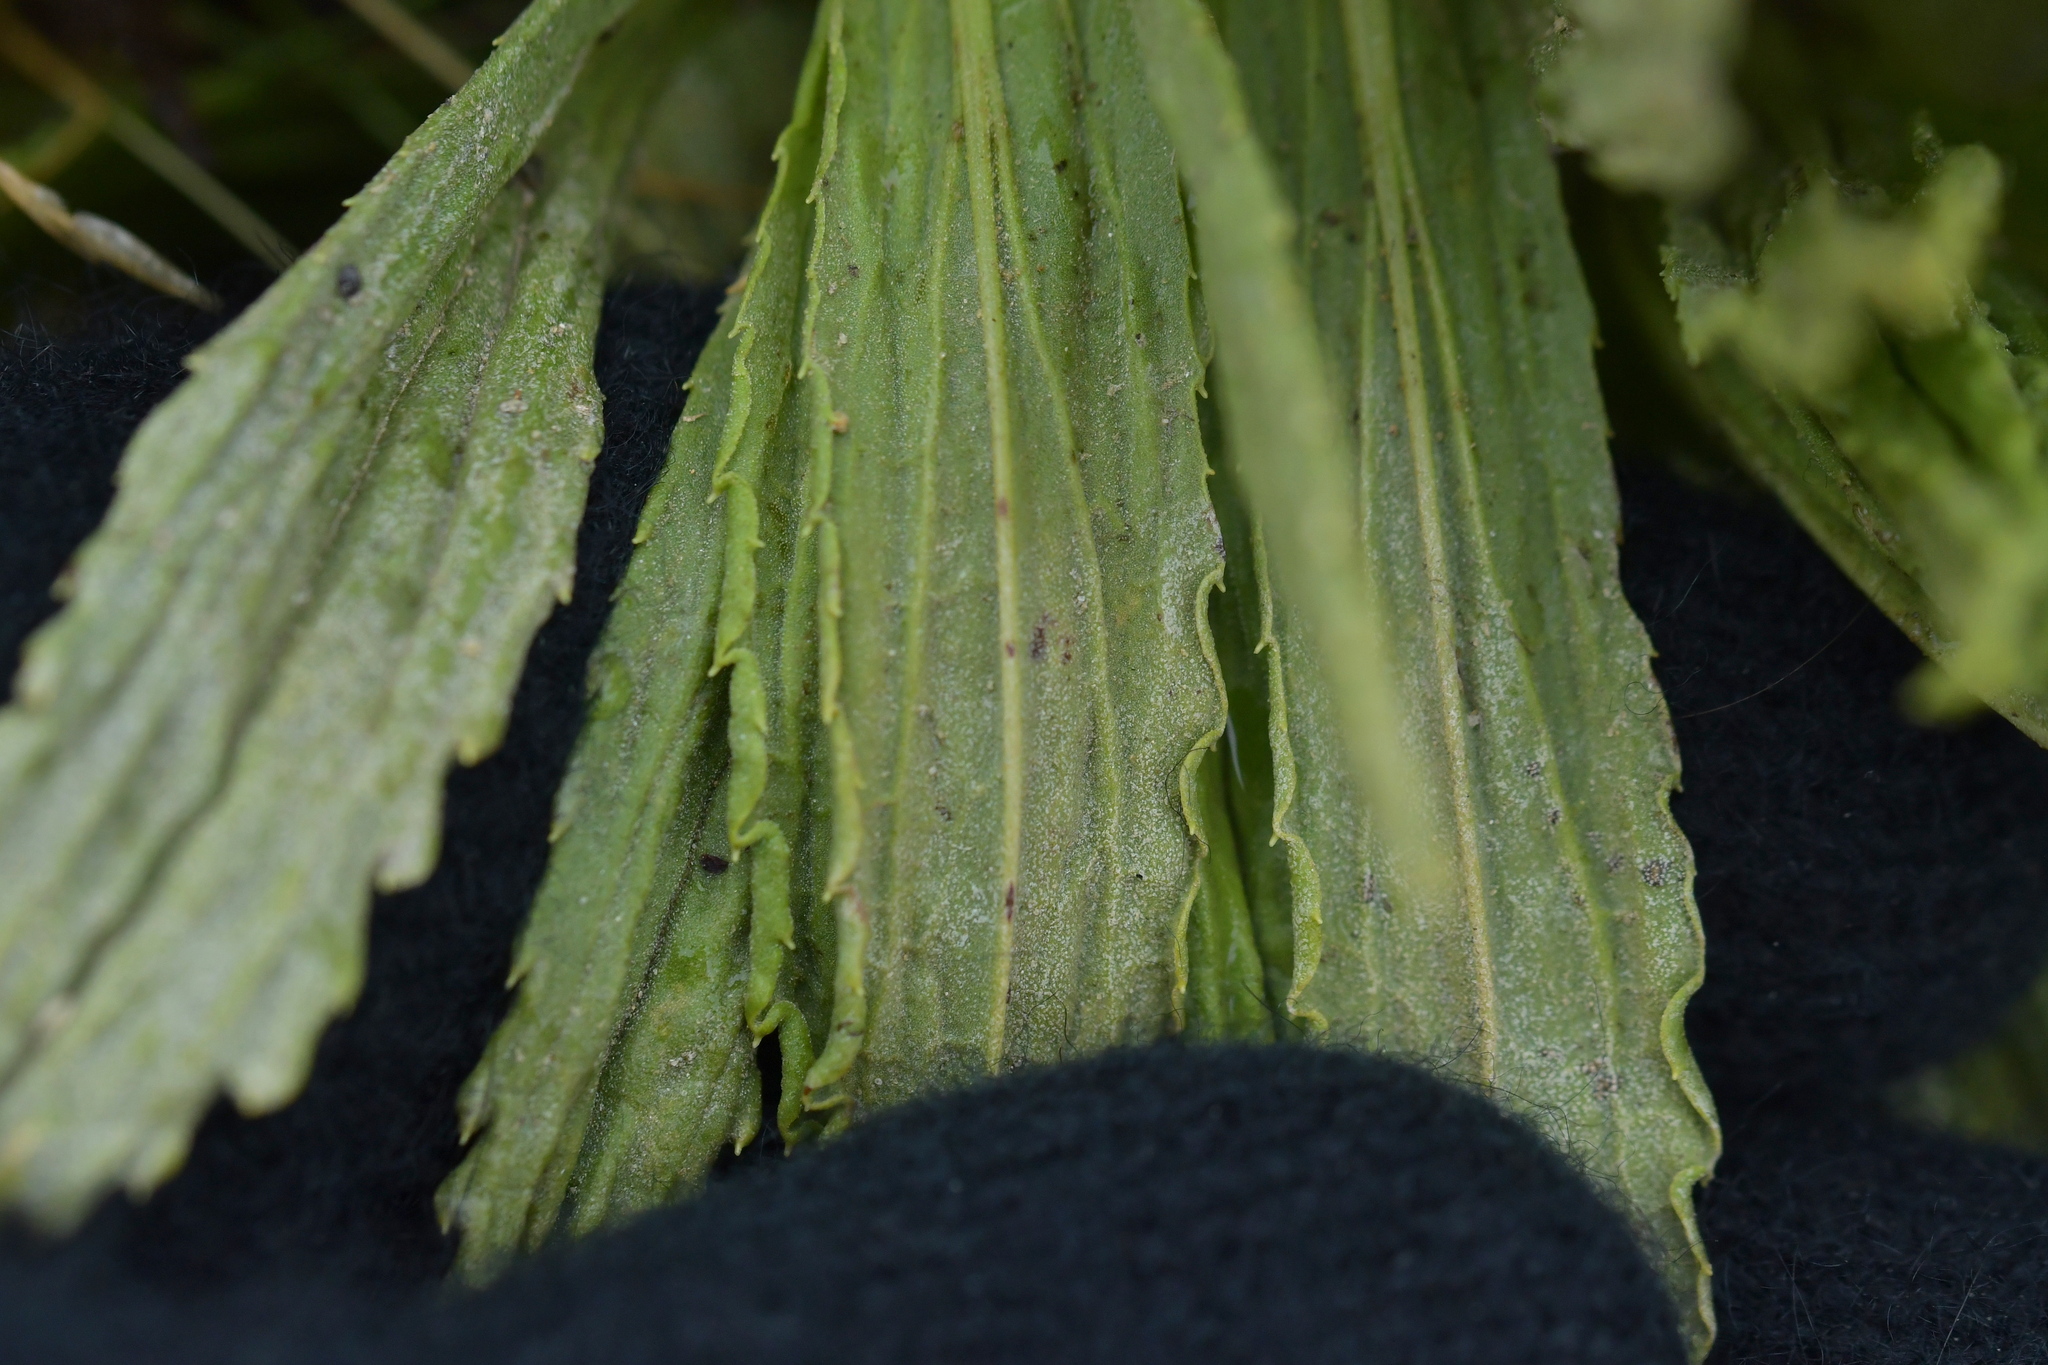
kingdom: Plantae
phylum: Tracheophyta
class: Magnoliopsida
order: Asterales
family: Asteraceae
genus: Celmisia
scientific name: Celmisia prorepens
